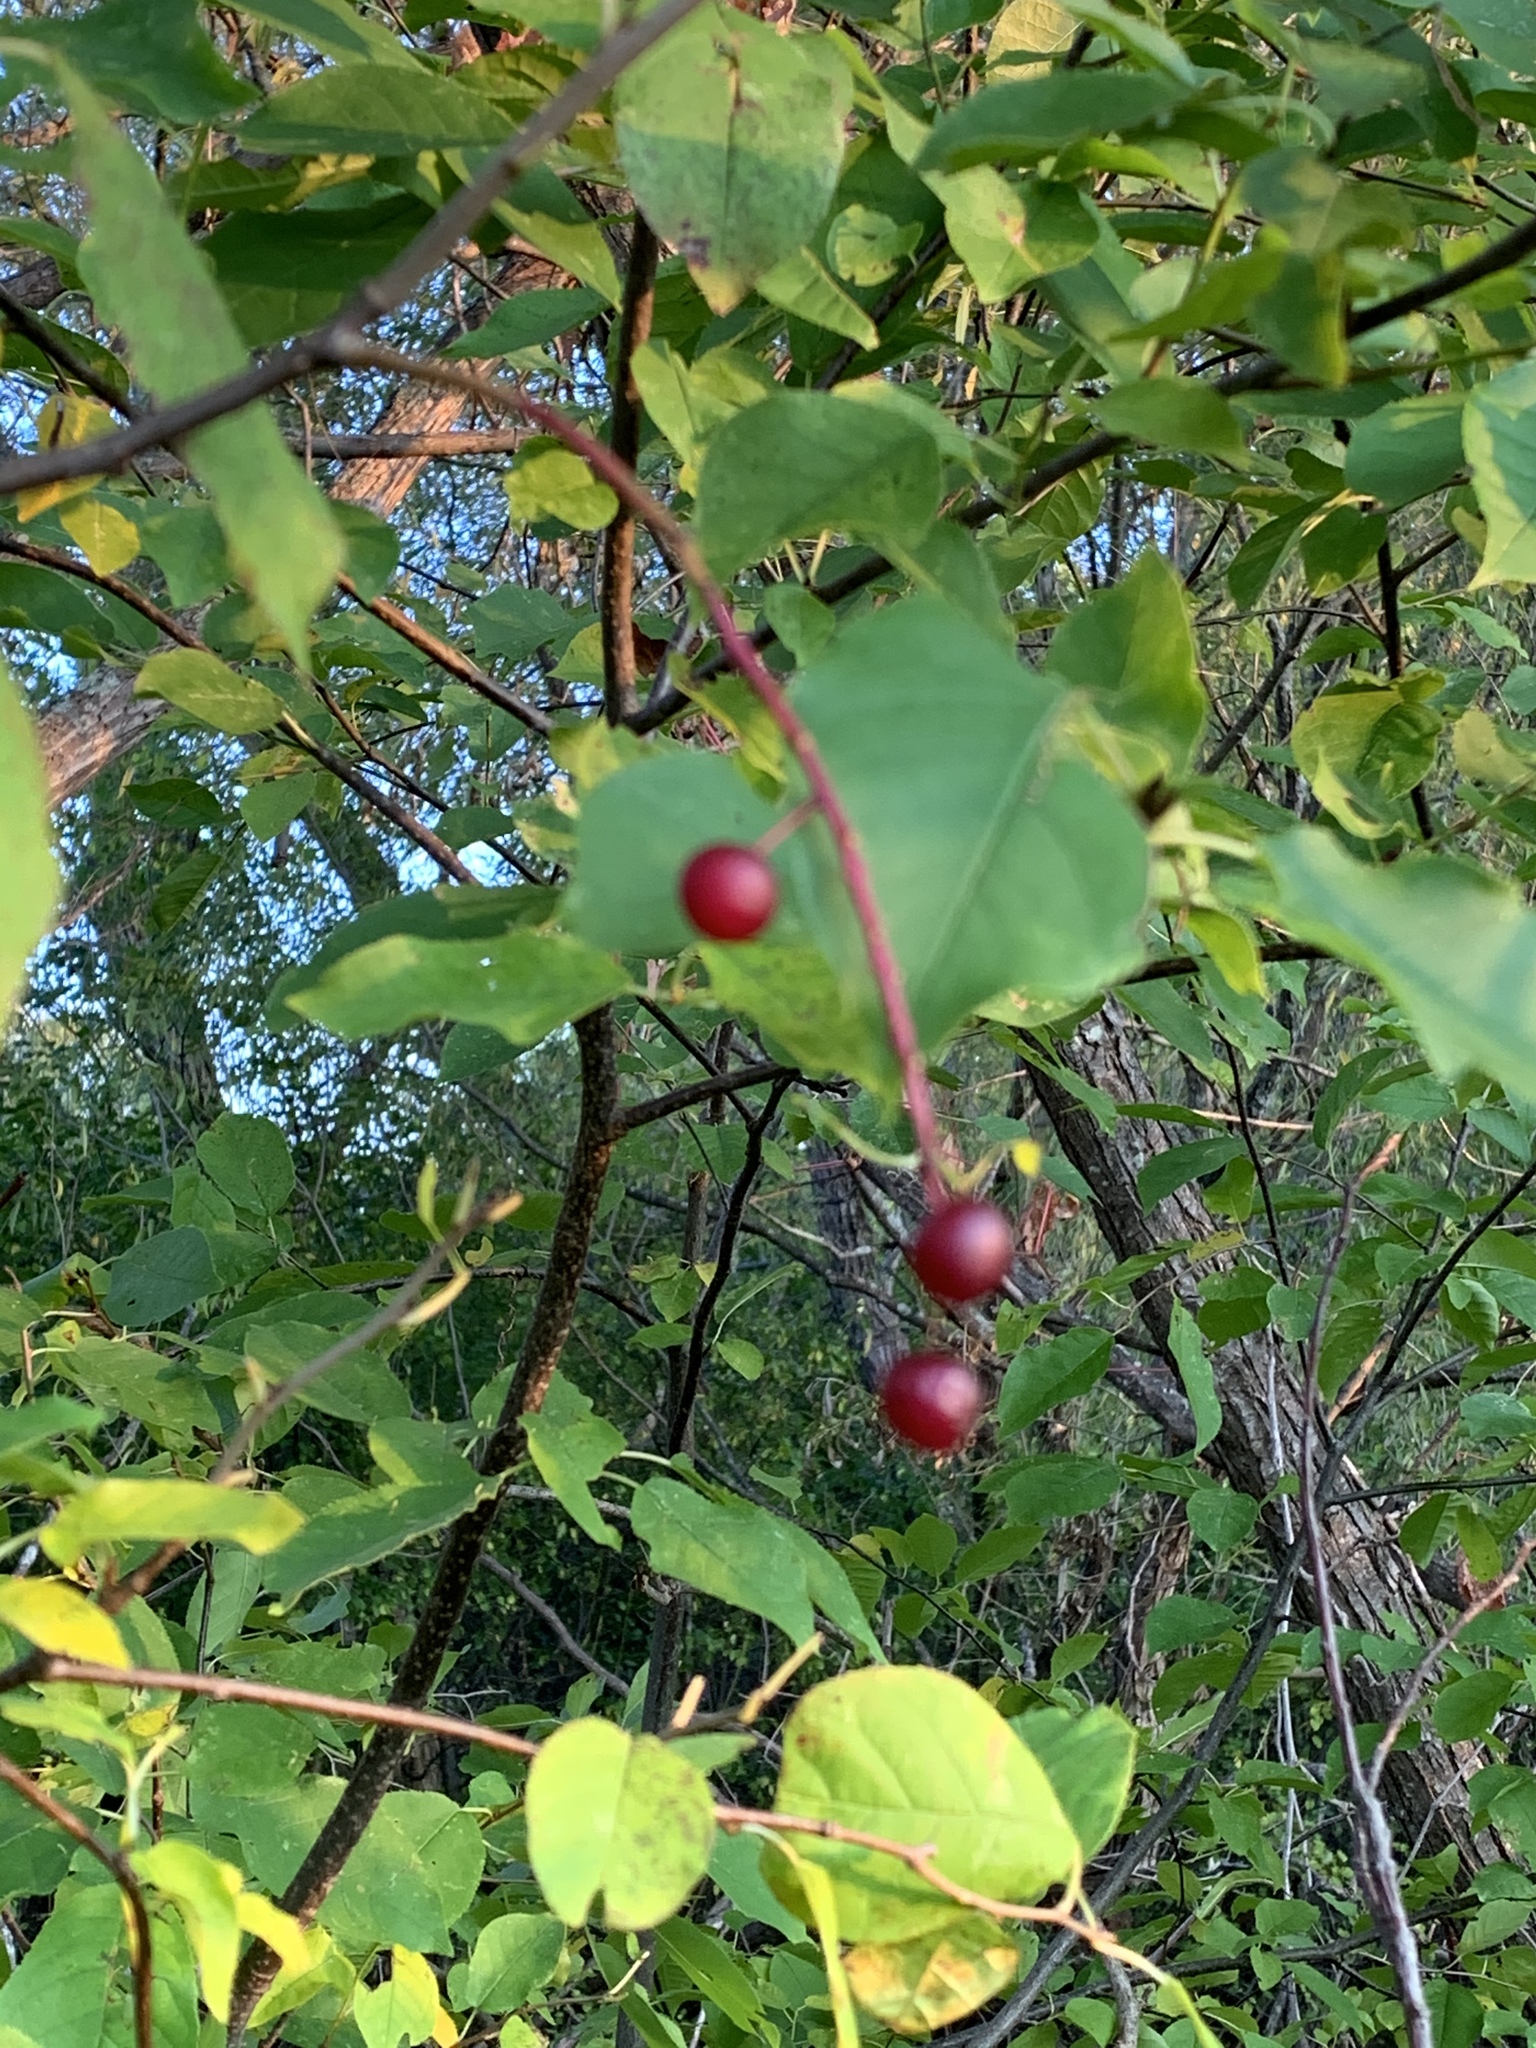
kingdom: Plantae
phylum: Tracheophyta
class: Magnoliopsida
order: Rosales
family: Rosaceae
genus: Prunus
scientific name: Prunus virginiana
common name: Chokecherry
